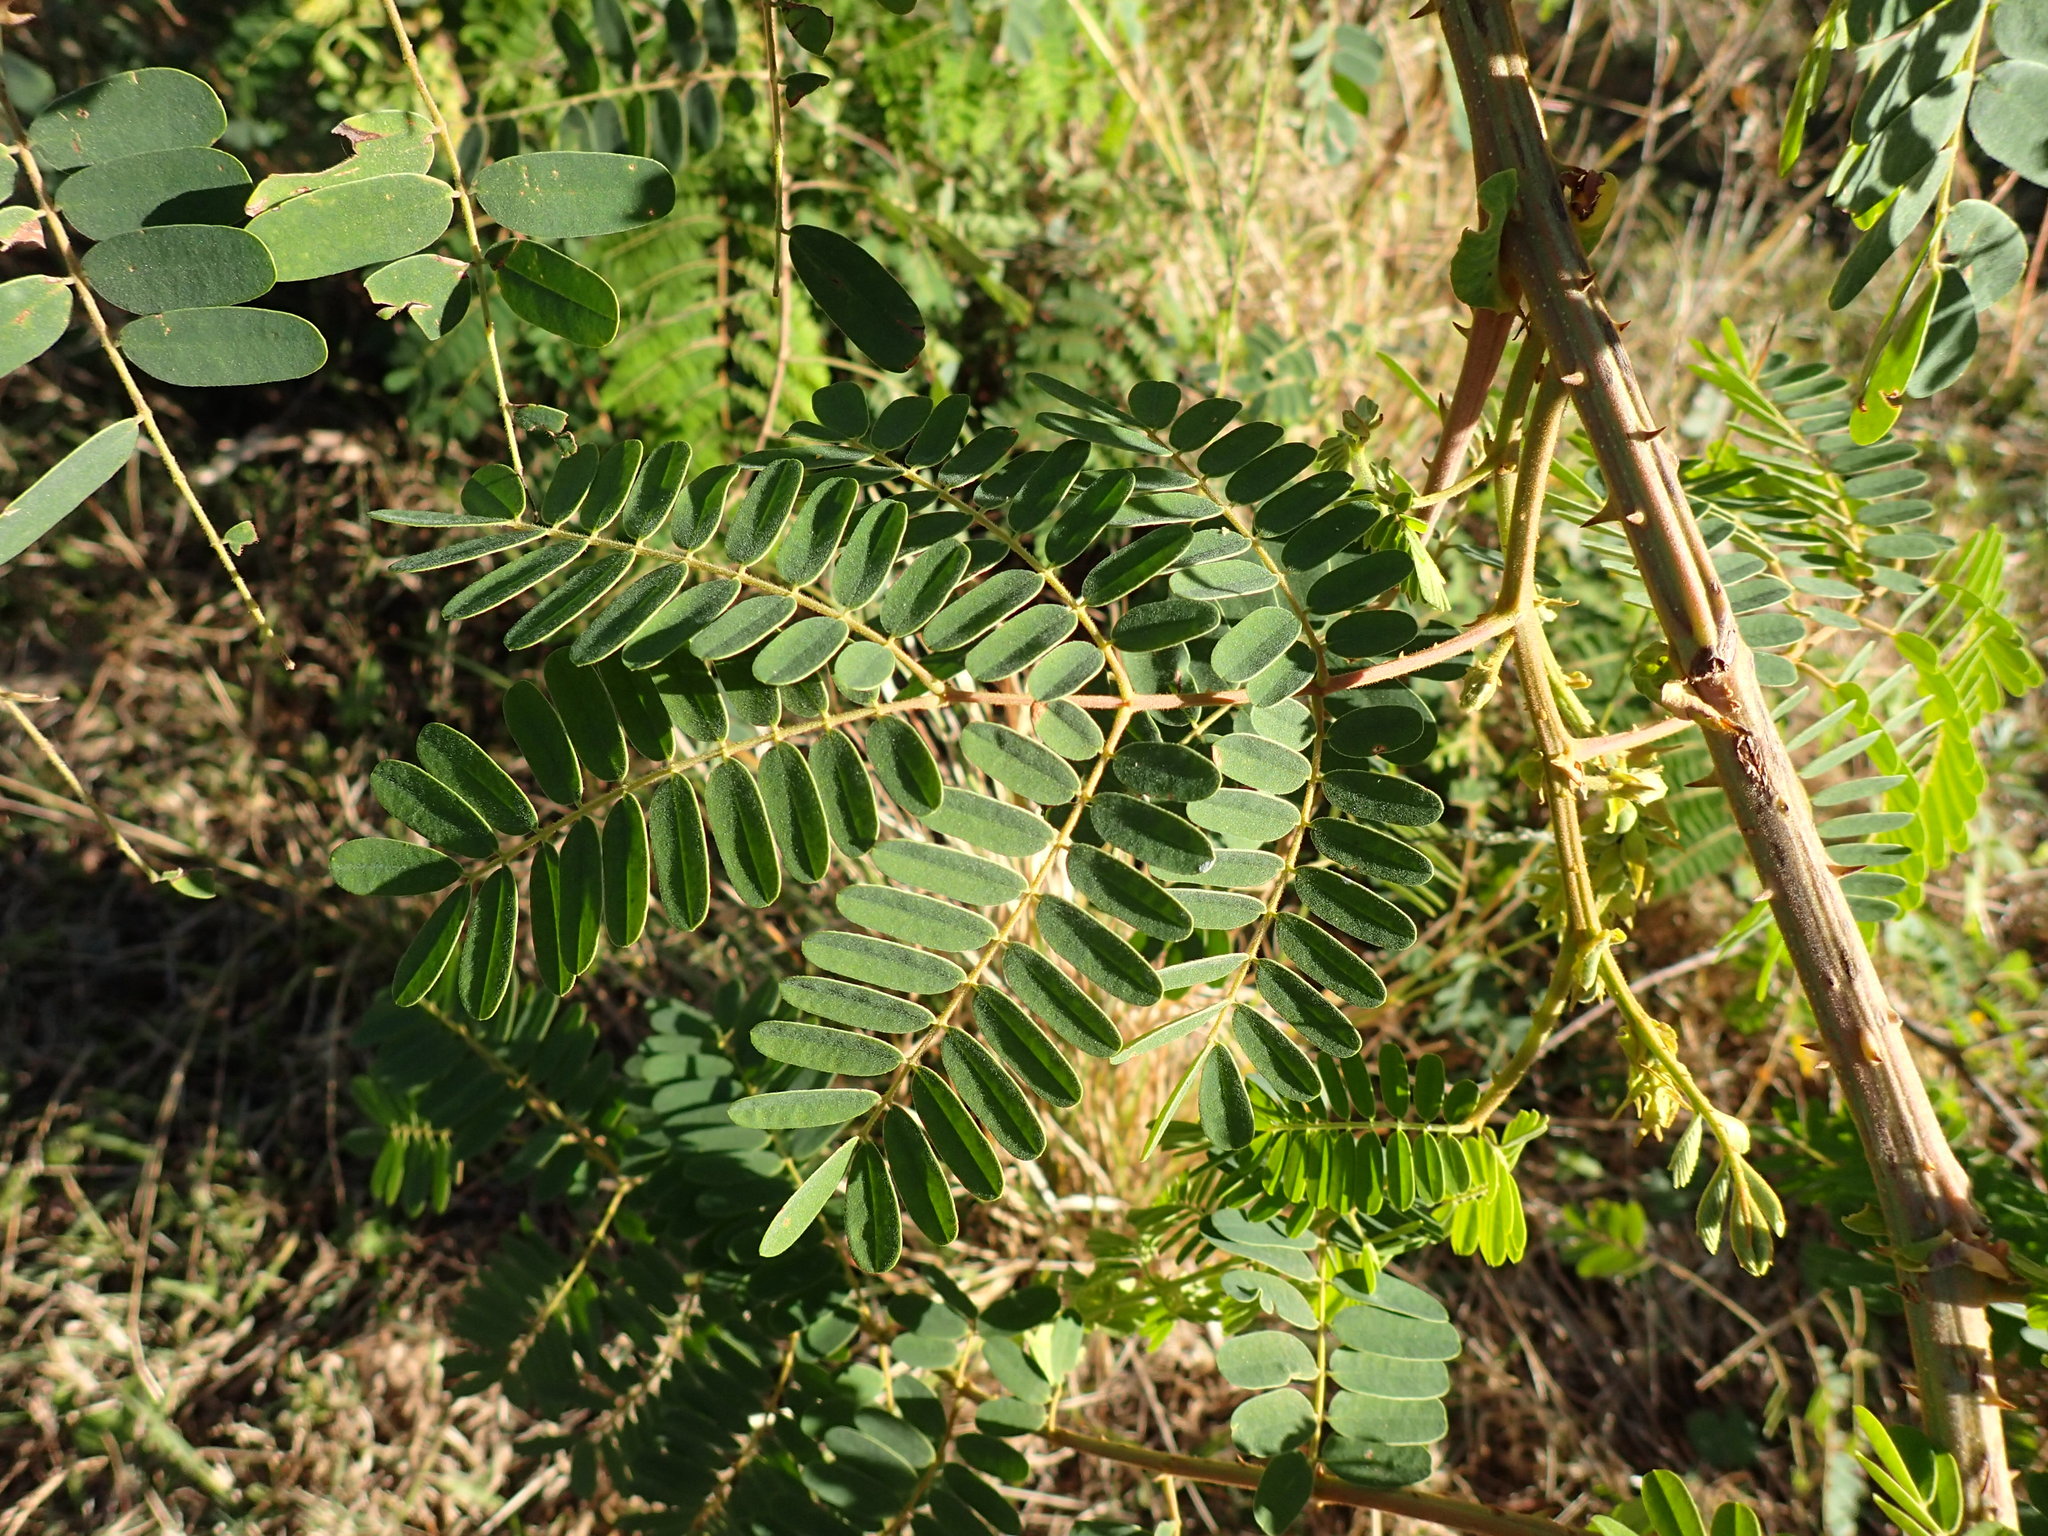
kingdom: Plantae
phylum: Tracheophyta
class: Magnoliopsida
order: Fabales
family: Fabaceae
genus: Biancaea
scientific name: Biancaea decapetala
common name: Cat's claw
